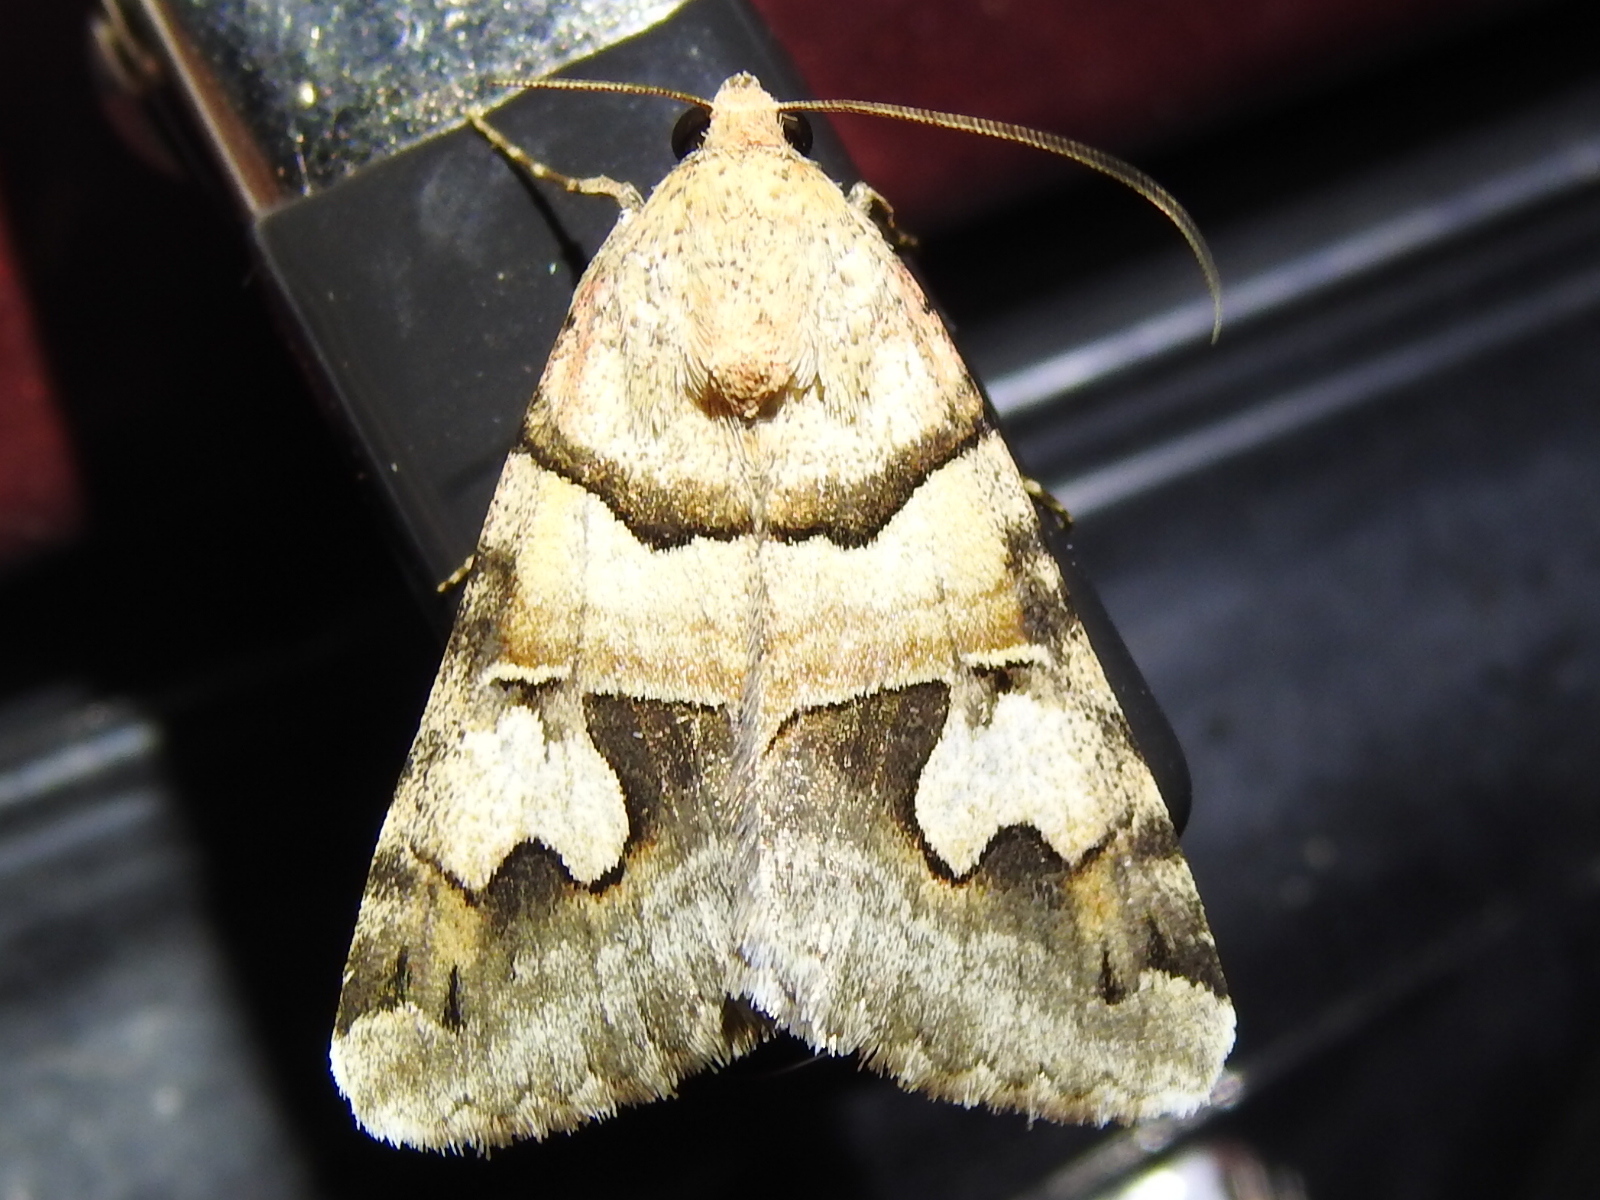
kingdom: Animalia
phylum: Arthropoda
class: Insecta
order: Lepidoptera
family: Erebidae
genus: Drasteria
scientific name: Drasteria pallescens
